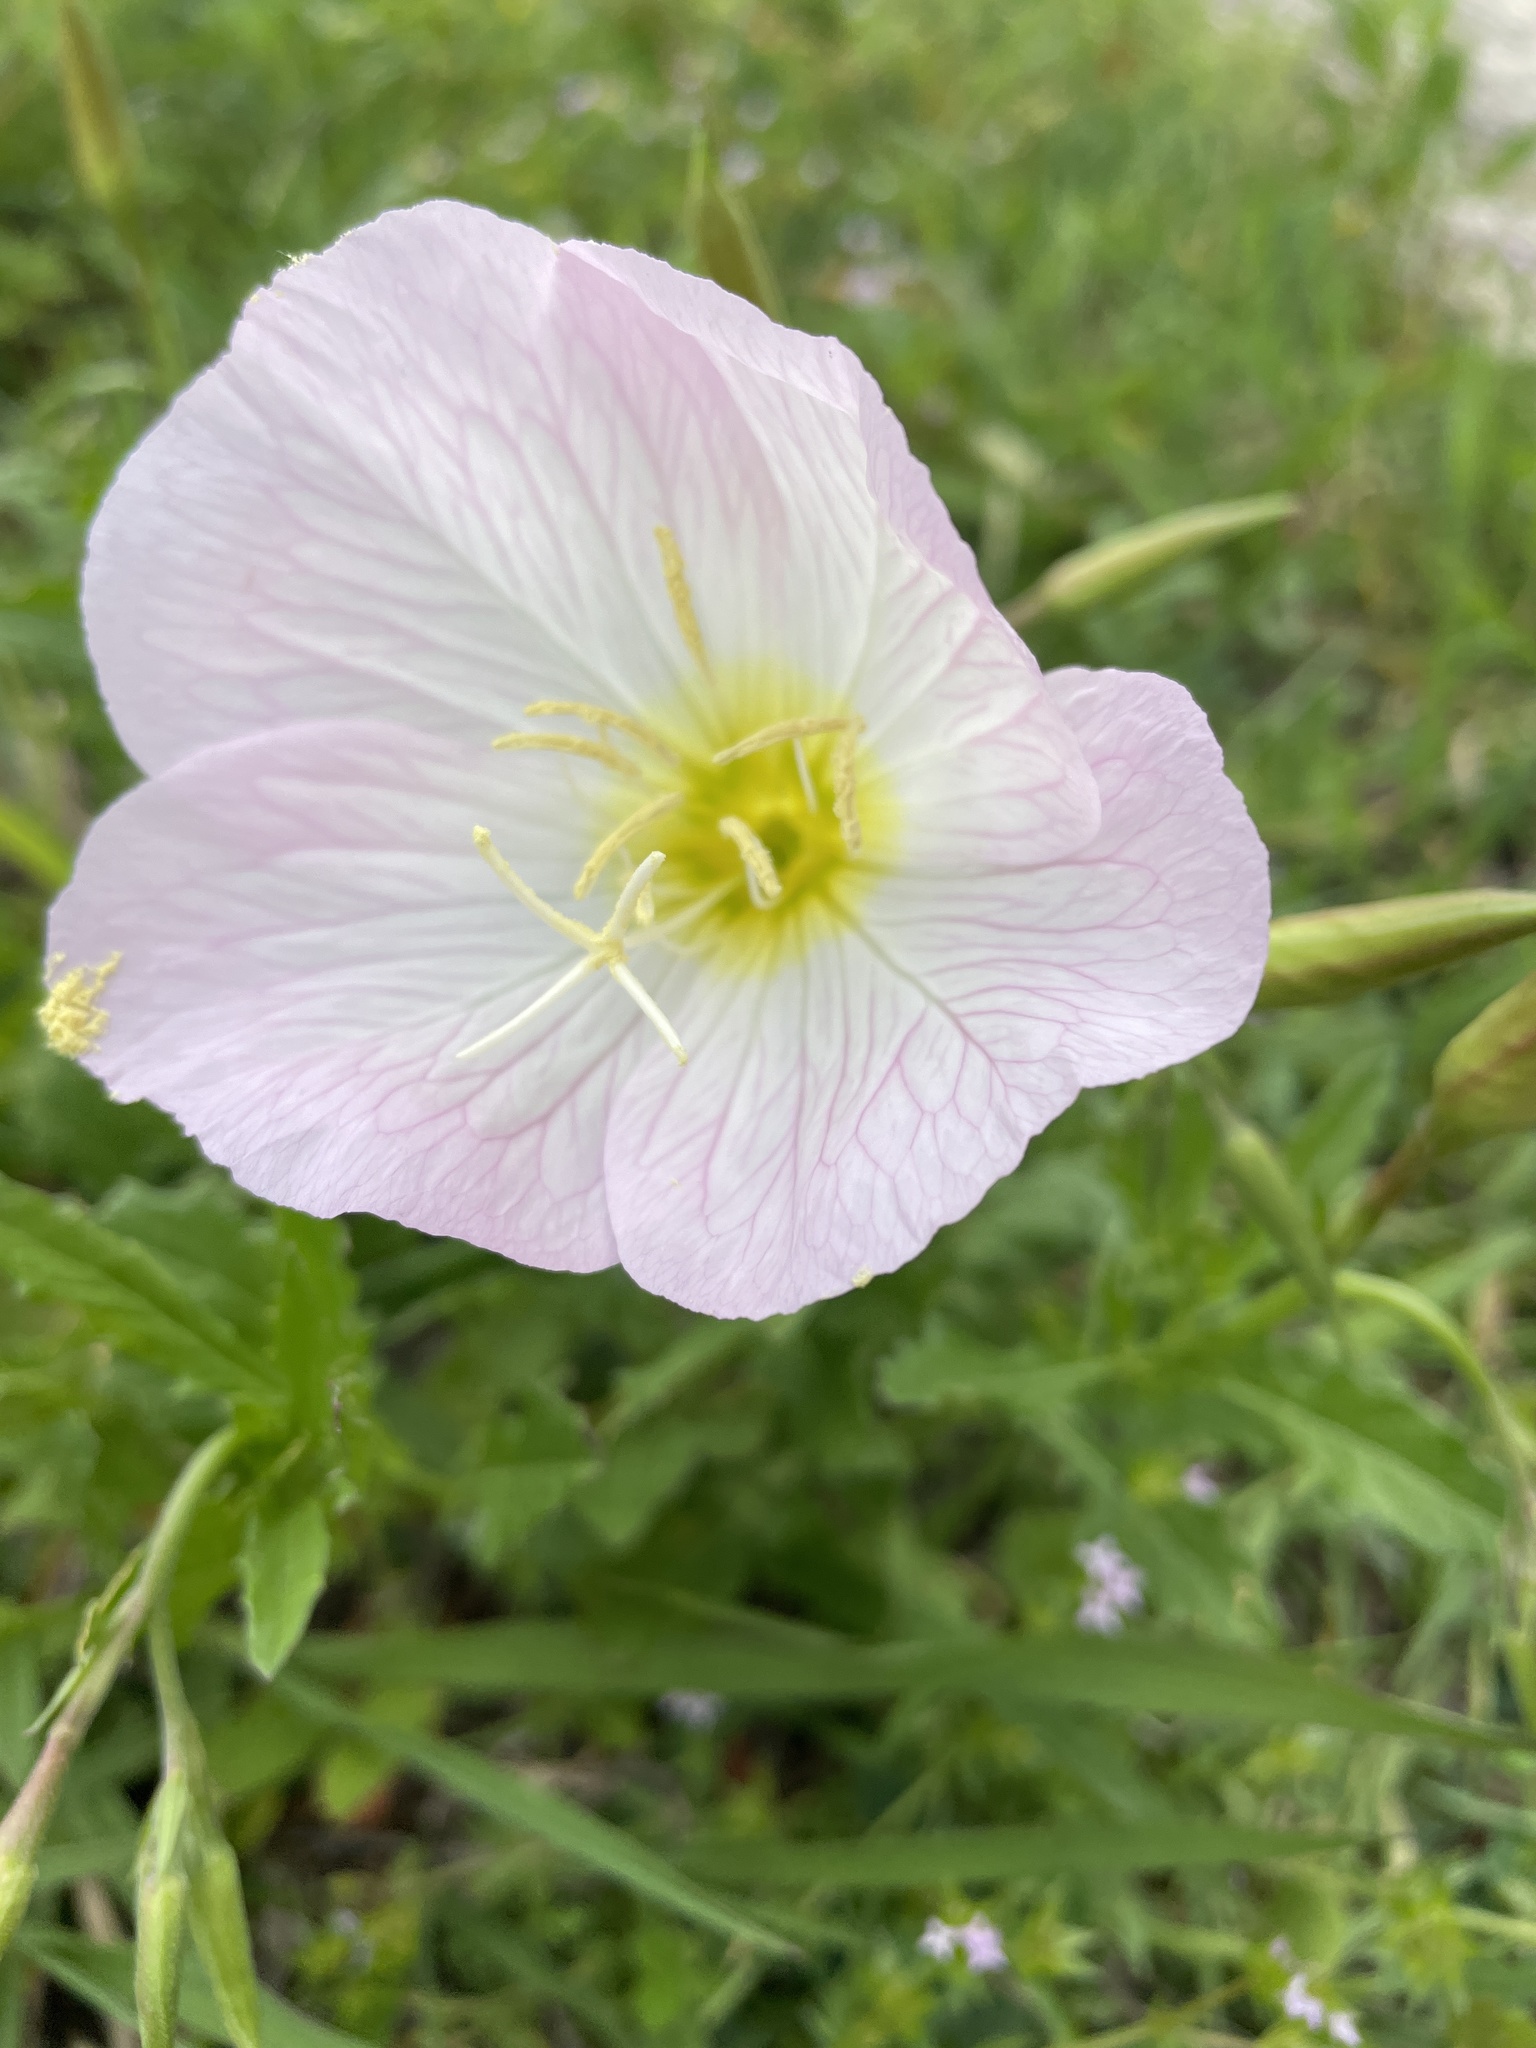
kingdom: Plantae
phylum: Tracheophyta
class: Magnoliopsida
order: Myrtales
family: Onagraceae
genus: Oenothera
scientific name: Oenothera speciosa
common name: White evening-primrose
